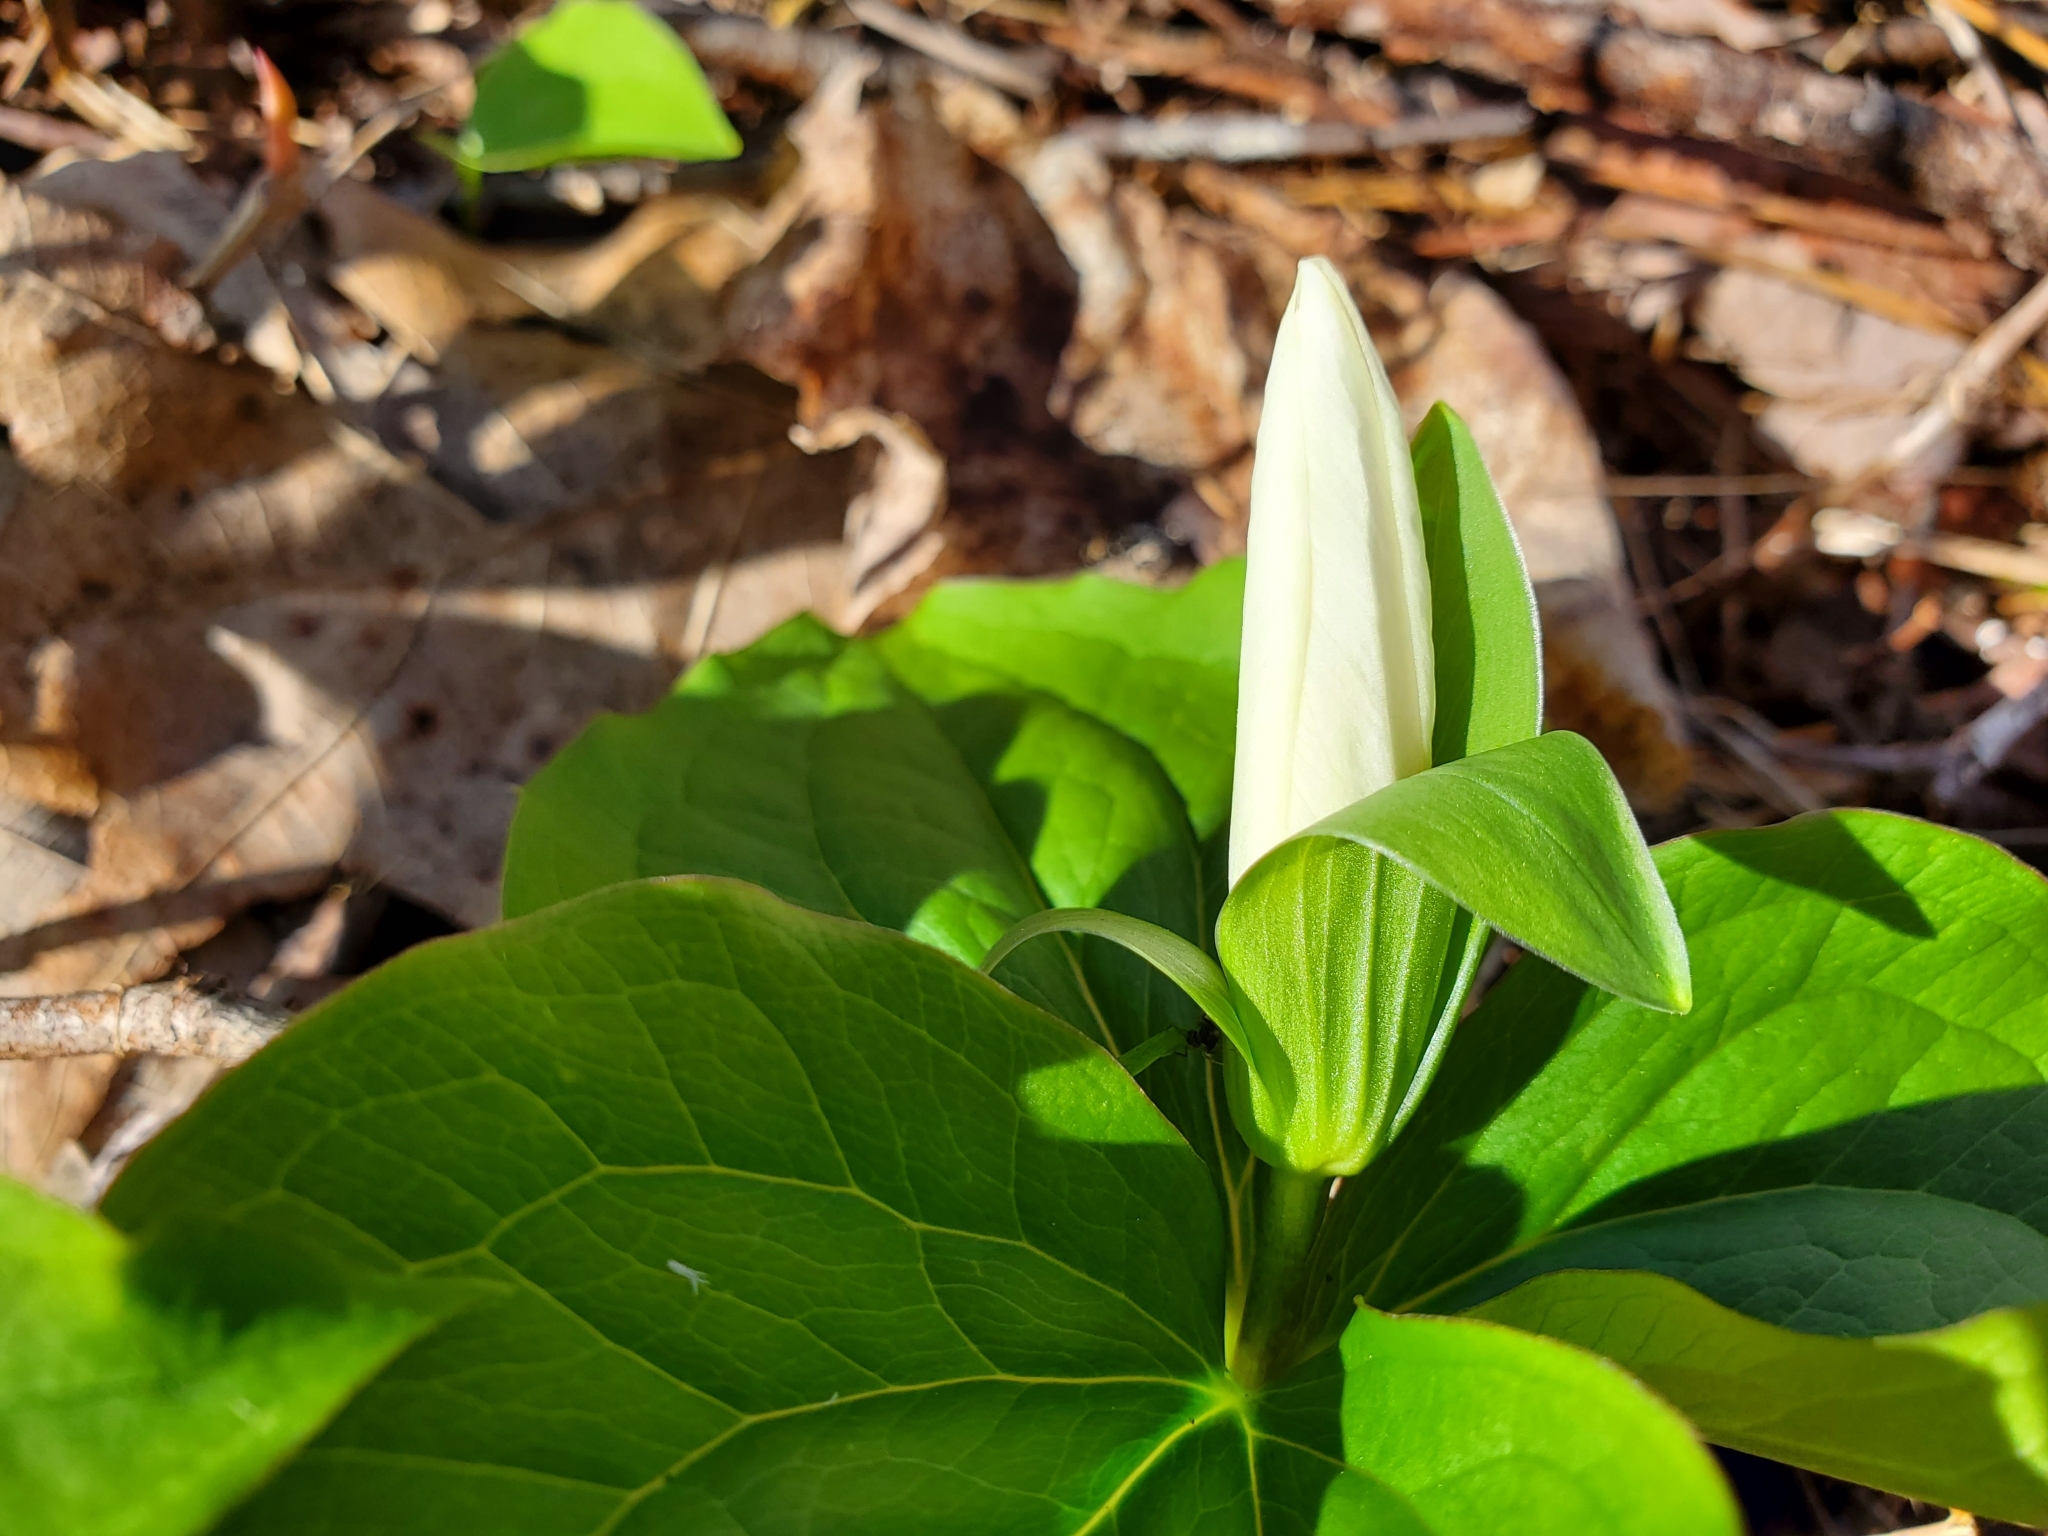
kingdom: Plantae
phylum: Tracheophyta
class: Liliopsida
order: Liliales
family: Melanthiaceae
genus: Trillium
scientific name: Trillium grandiflorum
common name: Great white trillium
